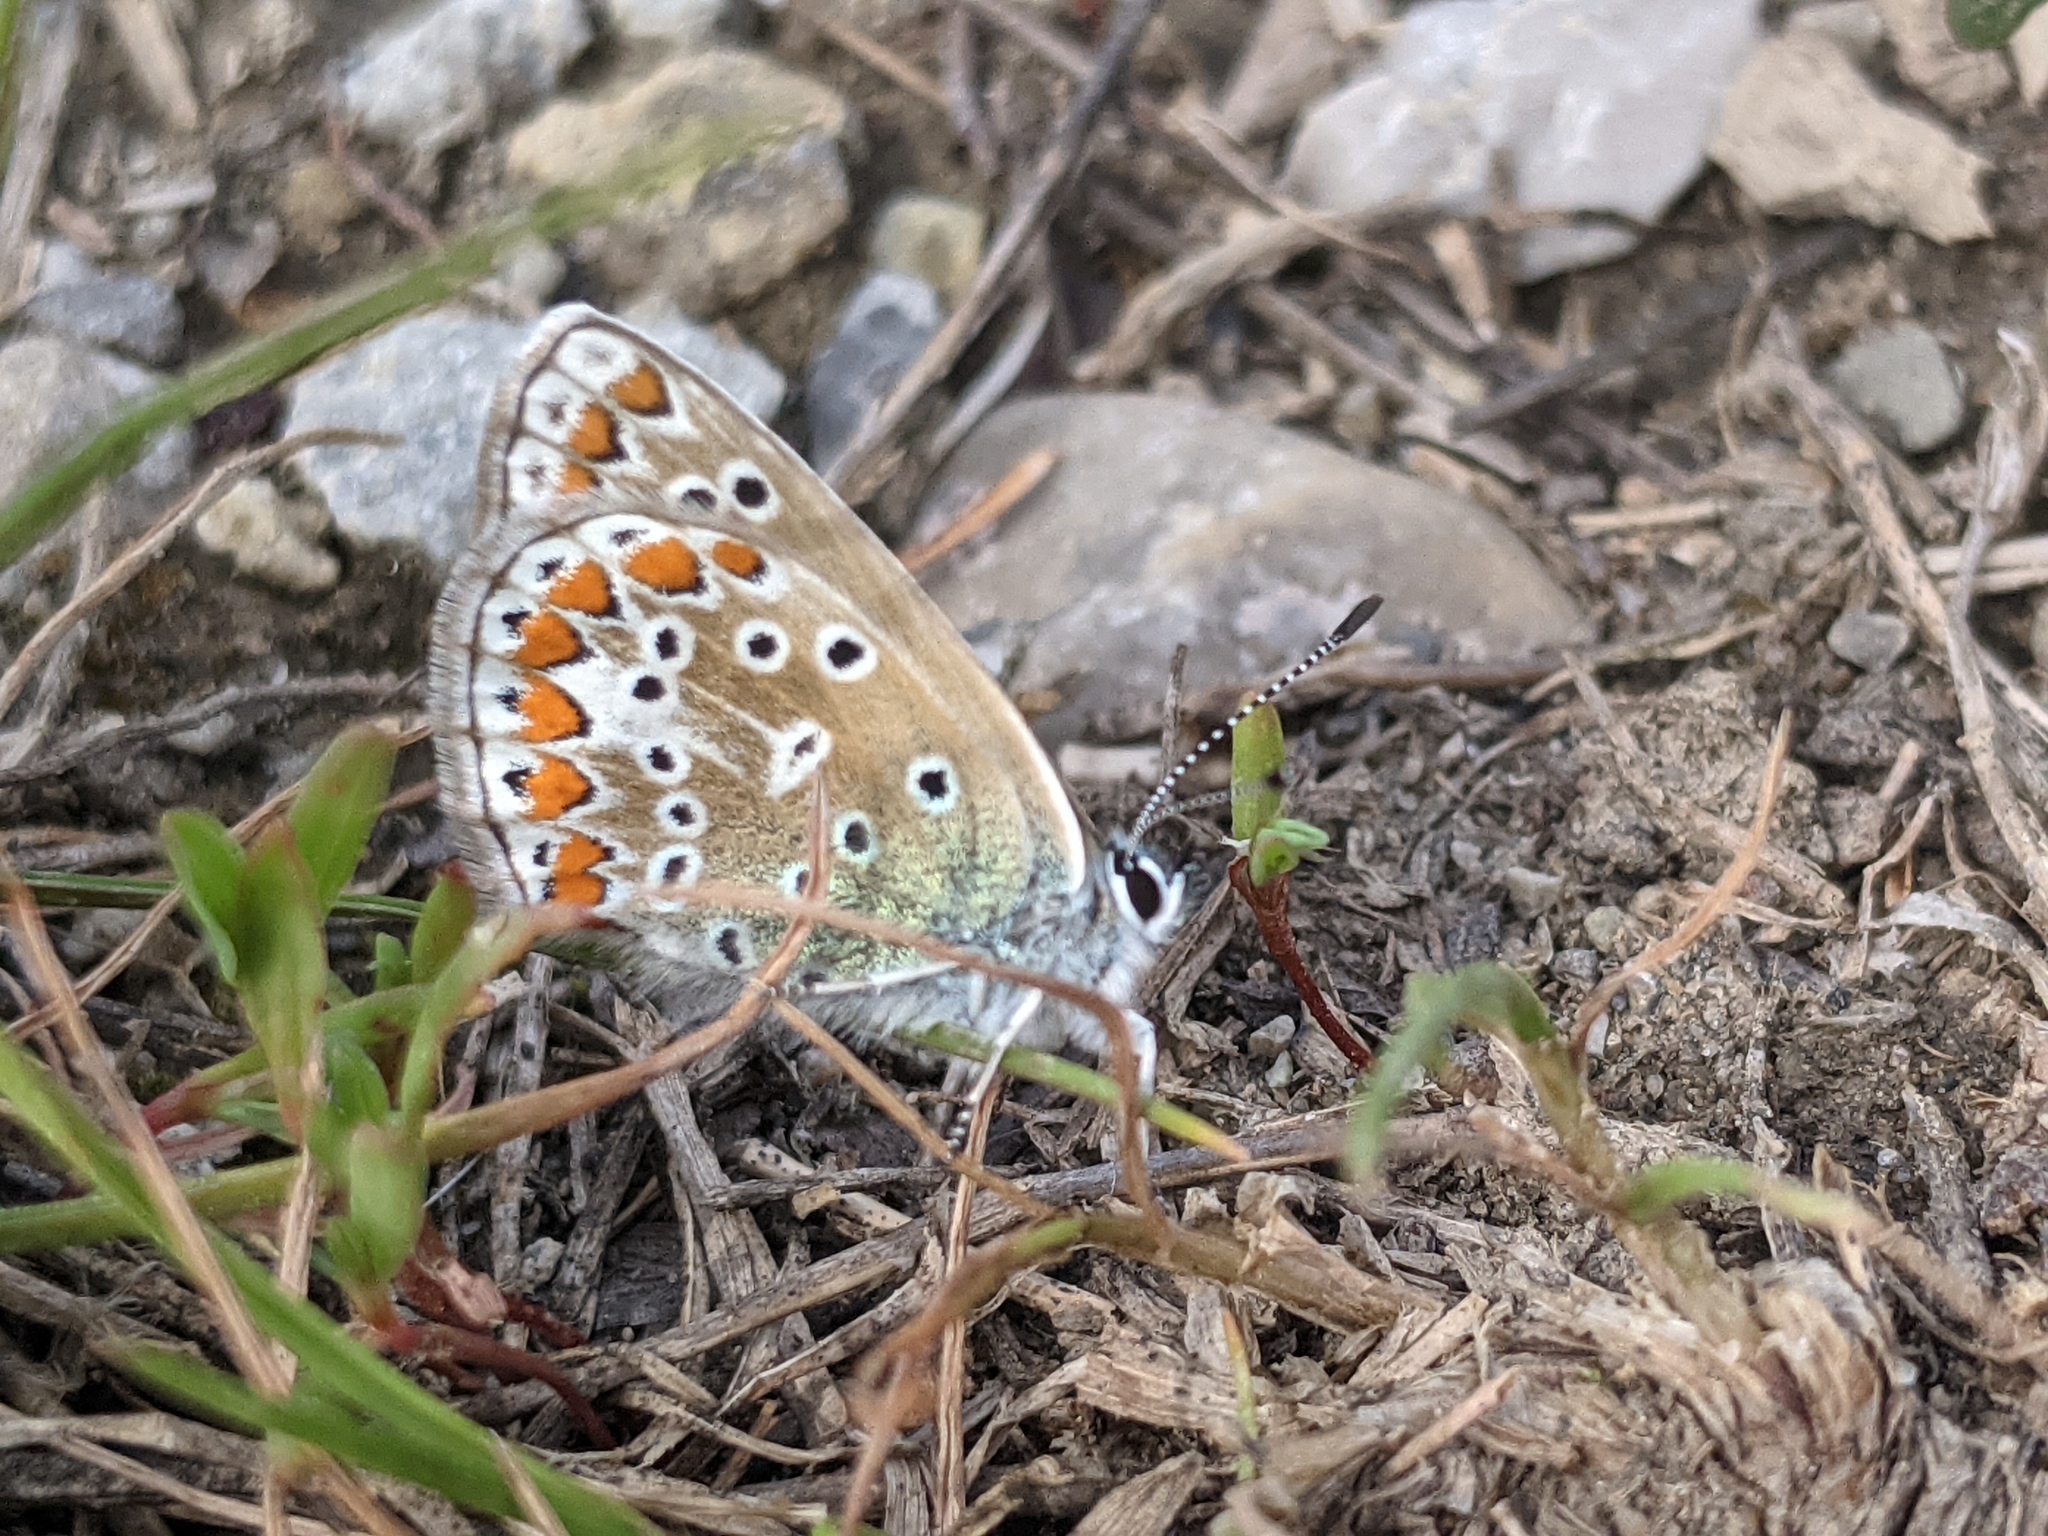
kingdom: Animalia
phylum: Arthropoda
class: Insecta
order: Lepidoptera
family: Lycaenidae
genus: Polyommatus
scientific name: Polyommatus icarus
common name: Common blue
